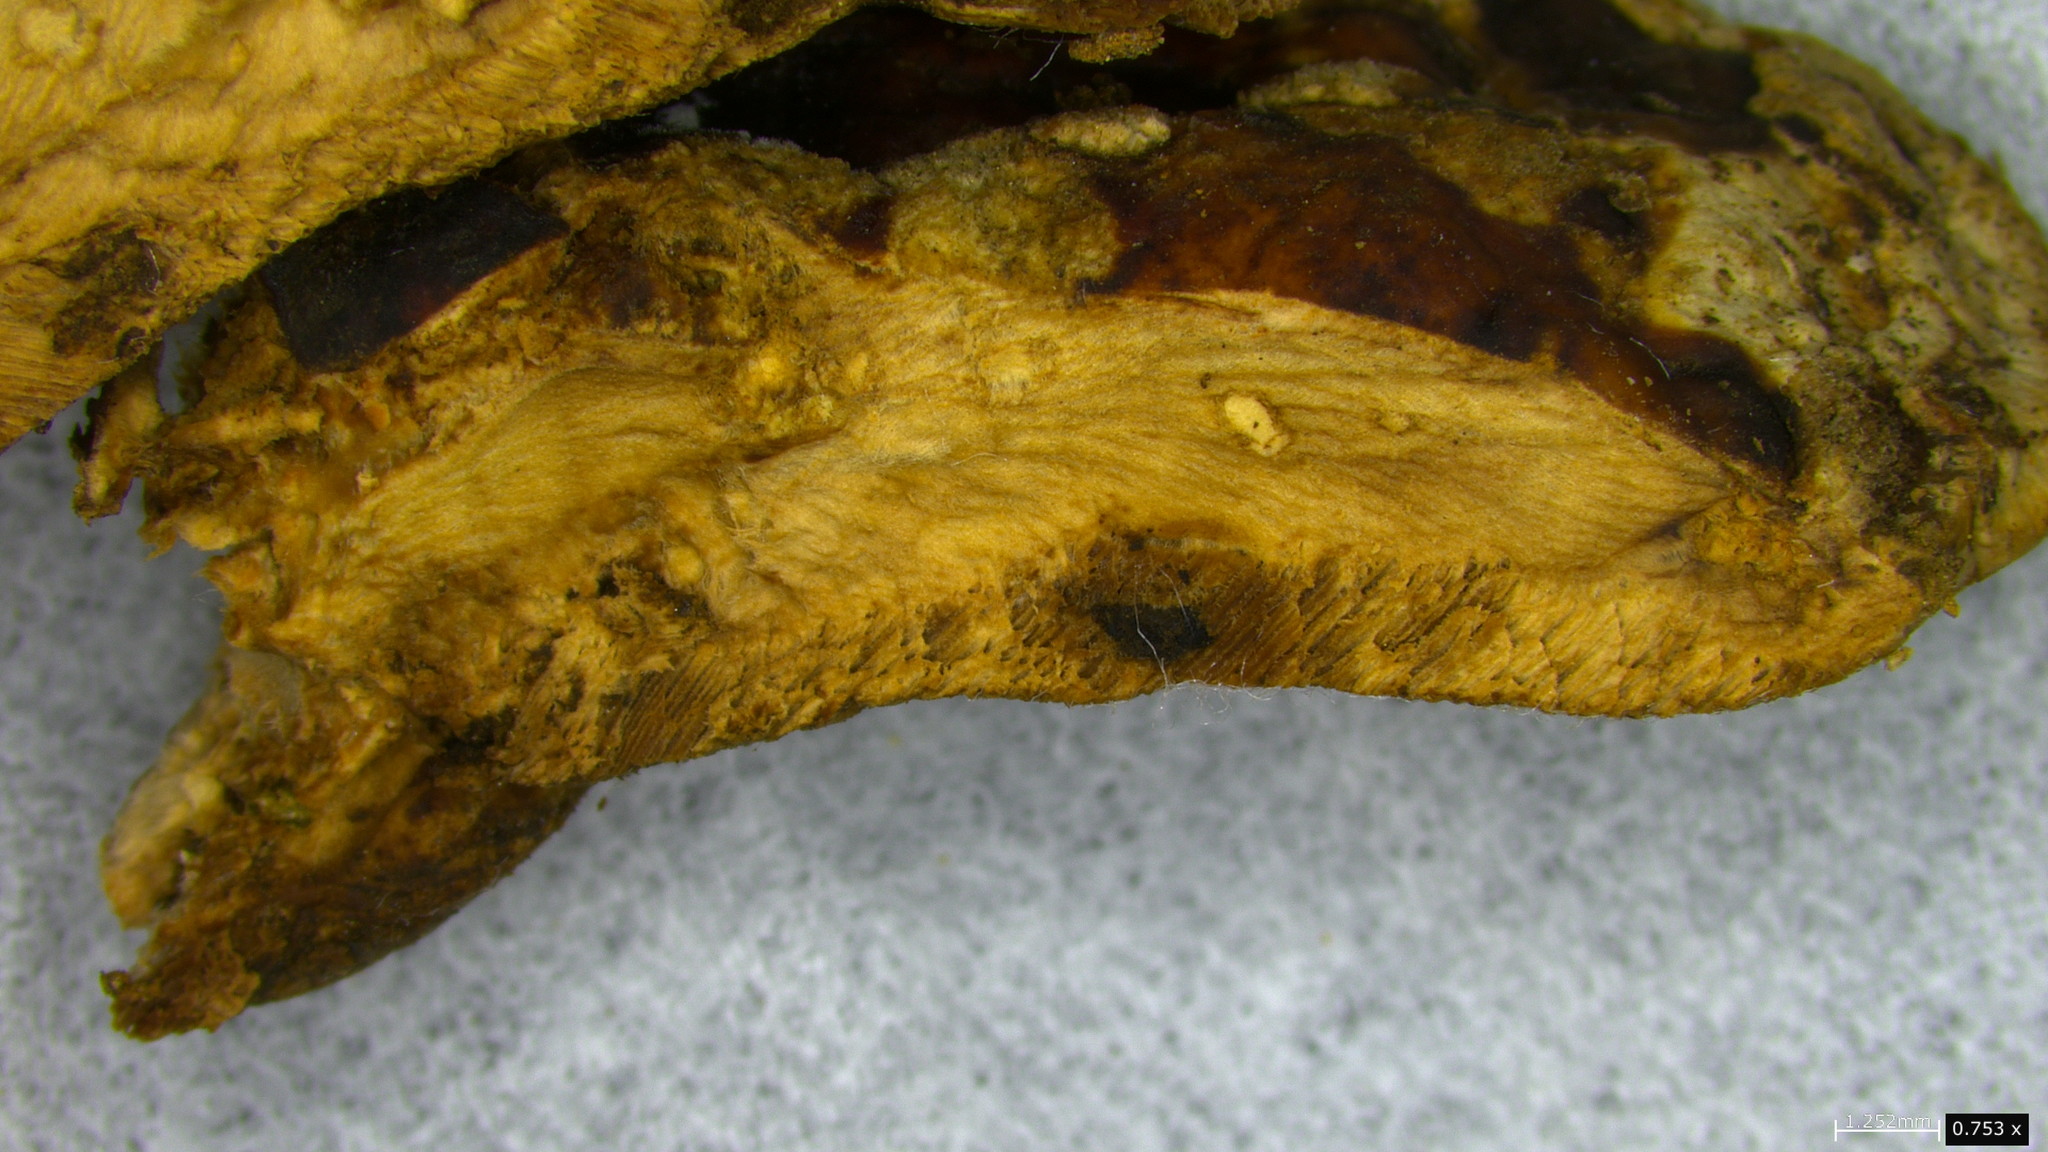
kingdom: Fungi
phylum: Basidiomycota
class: Agaricomycetes
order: Polyporales
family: Polyporaceae
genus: Vanderbylia
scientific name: Vanderbylia fraxinea
